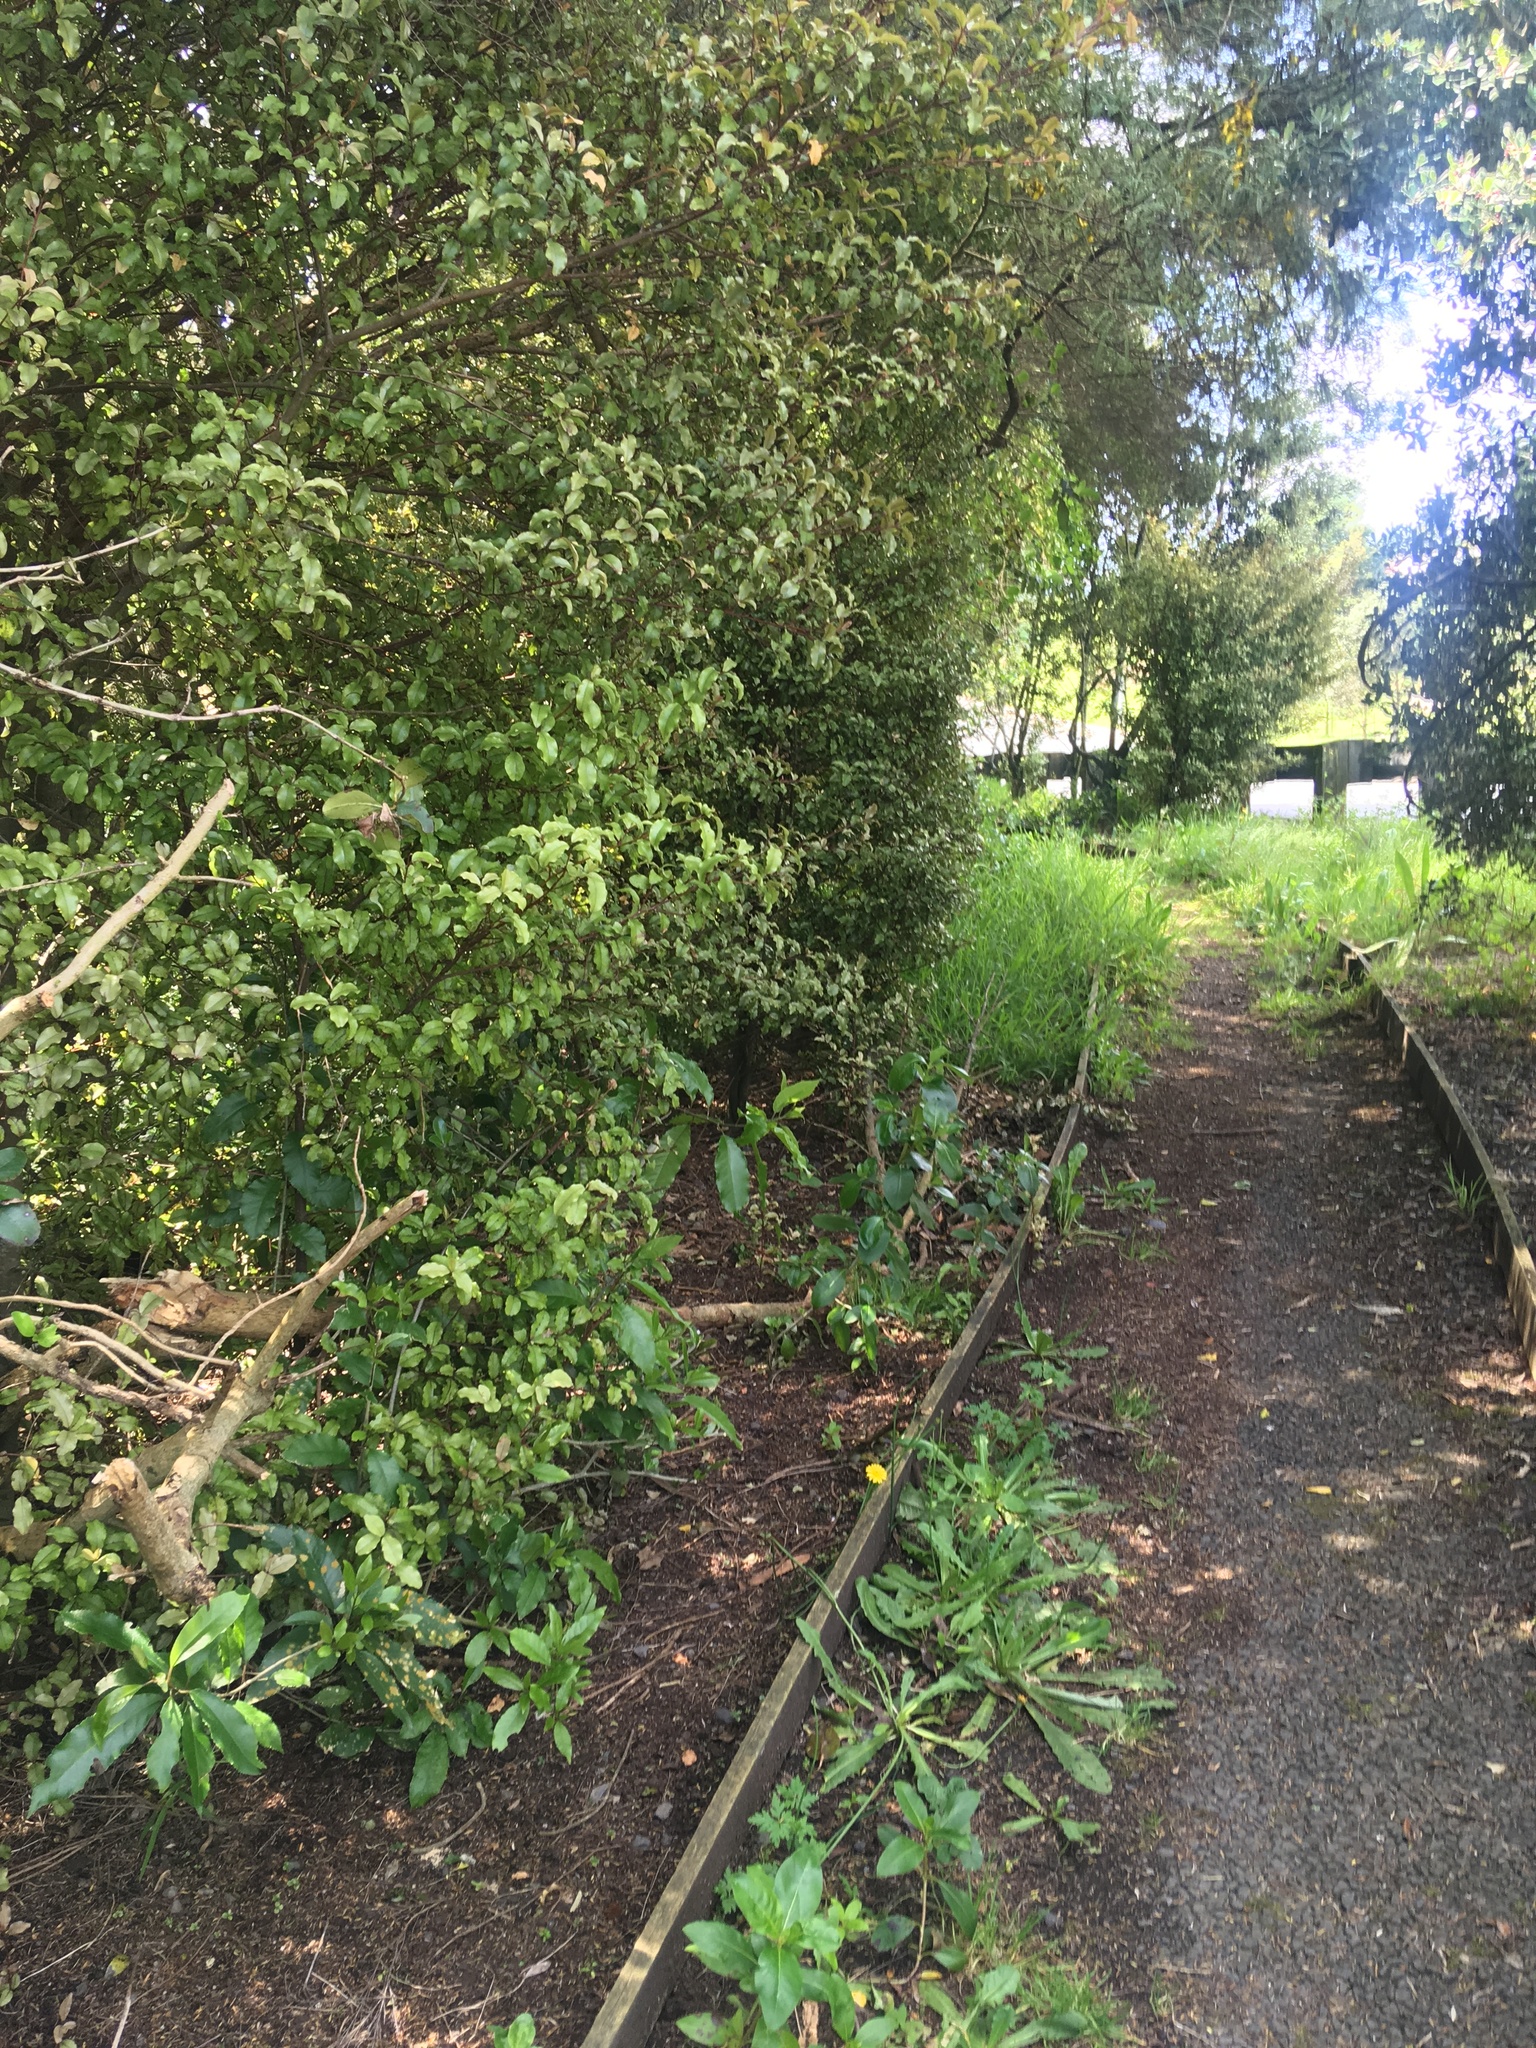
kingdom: Plantae
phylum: Tracheophyta
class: Magnoliopsida
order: Ericales
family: Primulaceae
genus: Myrsine
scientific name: Myrsine australis
